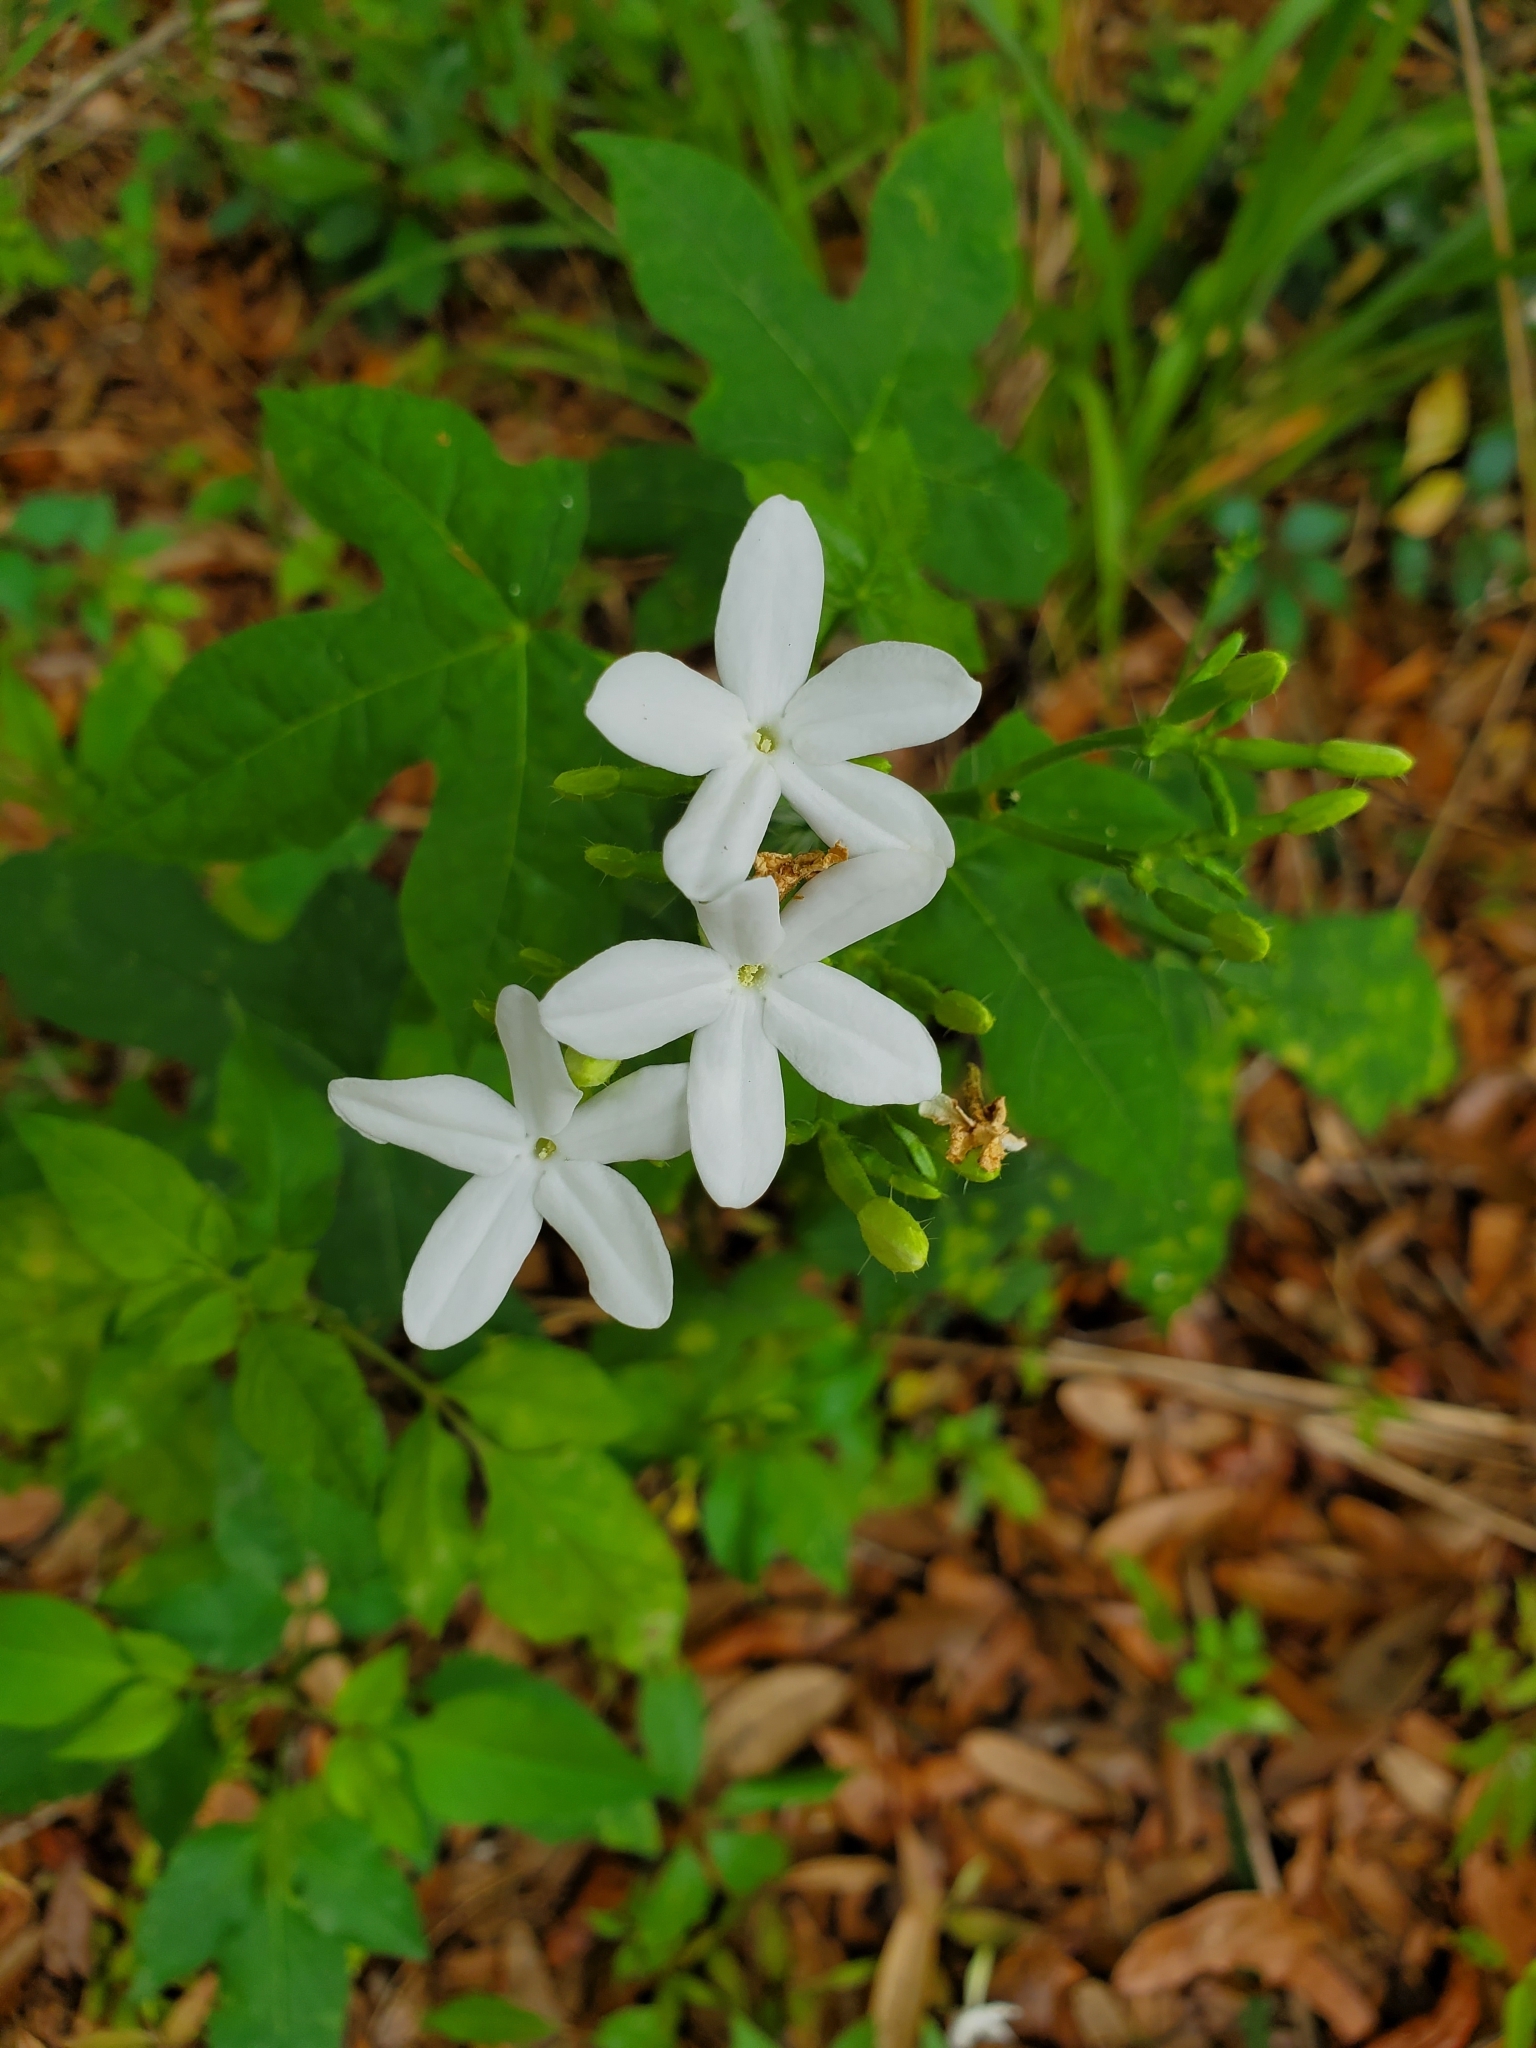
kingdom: Plantae
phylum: Tracheophyta
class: Magnoliopsida
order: Malpighiales
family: Euphorbiaceae
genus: Cnidoscolus
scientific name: Cnidoscolus stimulosus
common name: Bull-nettle
